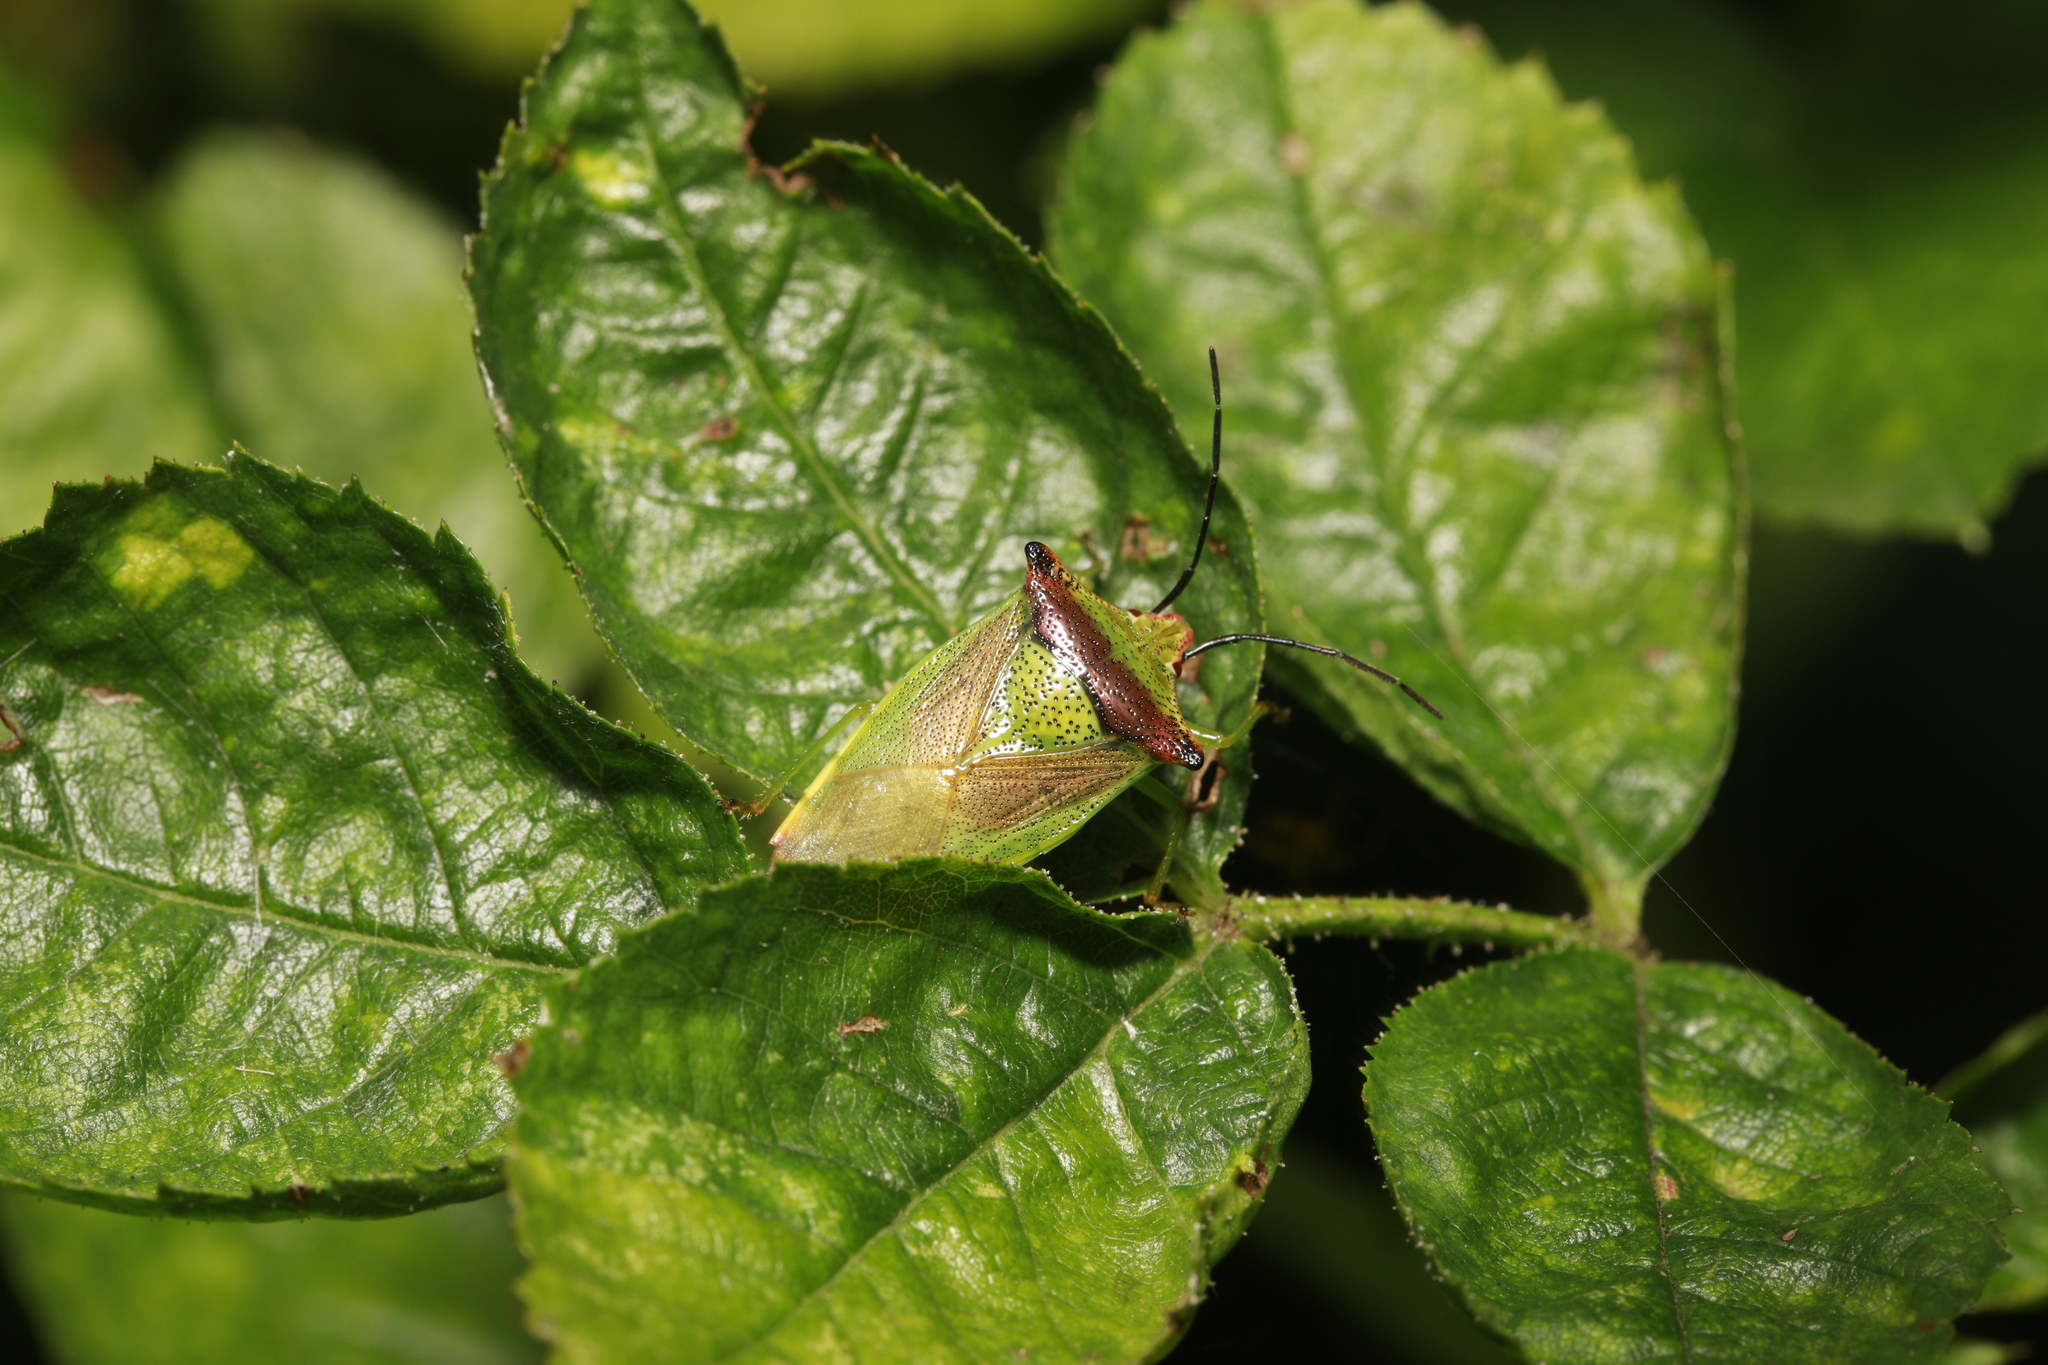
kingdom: Animalia
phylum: Arthropoda
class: Insecta
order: Hemiptera
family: Acanthosomatidae
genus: Acanthosoma
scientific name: Acanthosoma haemorrhoidale
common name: Hawthorn shieldbug
